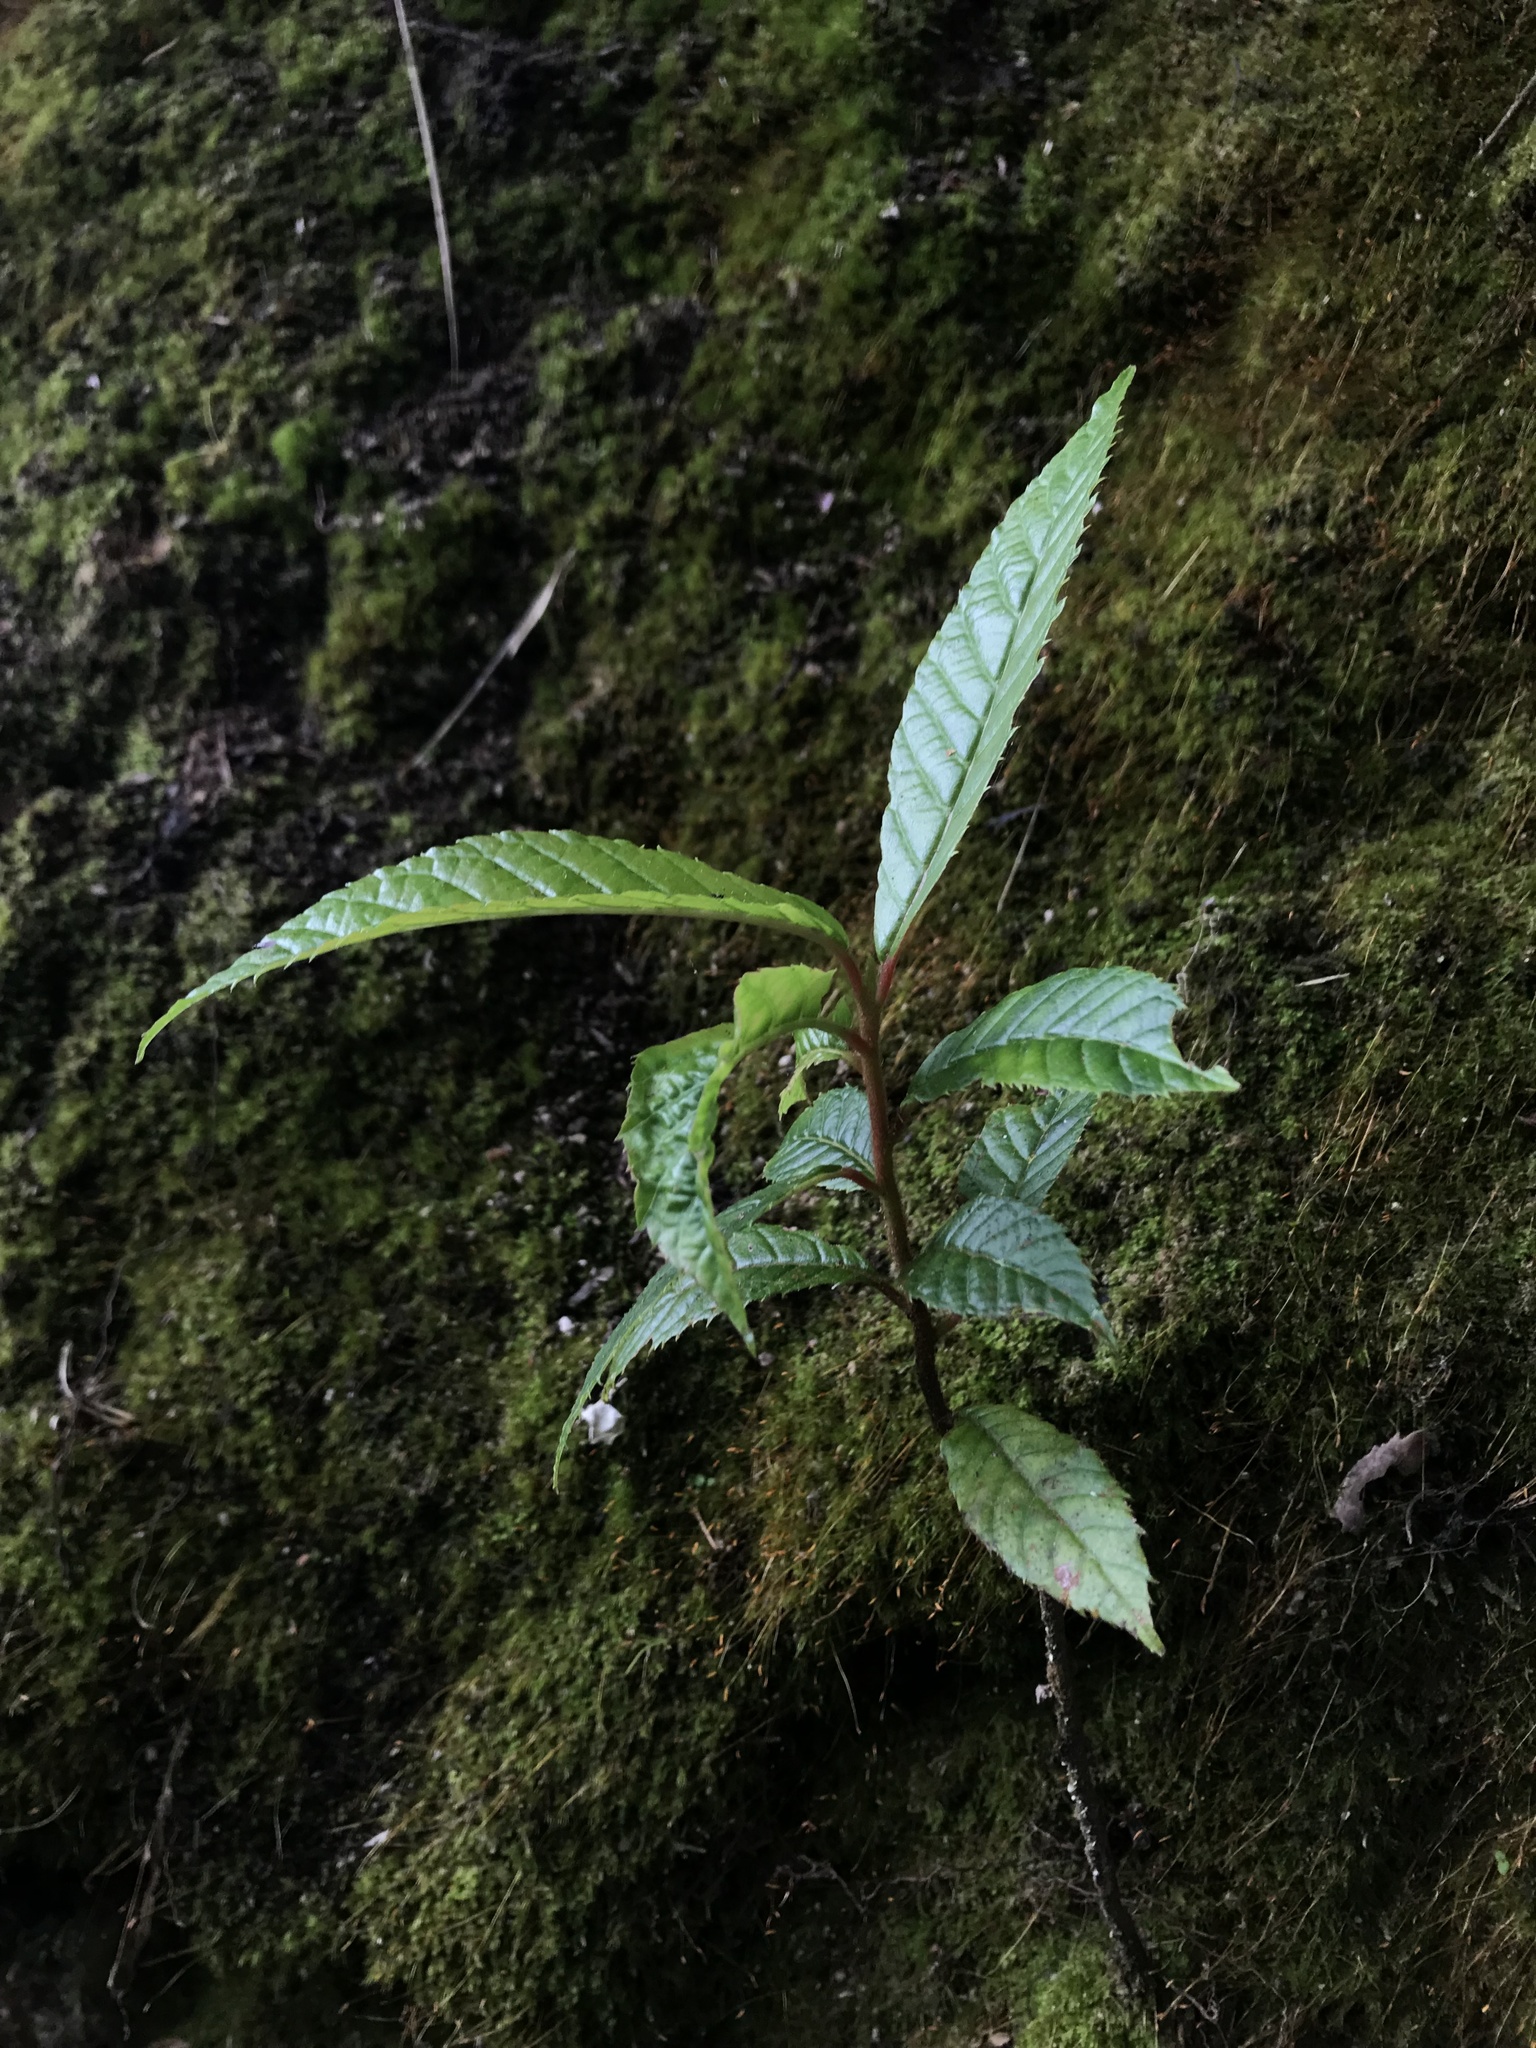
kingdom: Plantae
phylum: Tracheophyta
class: Magnoliopsida
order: Ericales
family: Clethraceae
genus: Clethra
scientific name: Clethra fagifolia
